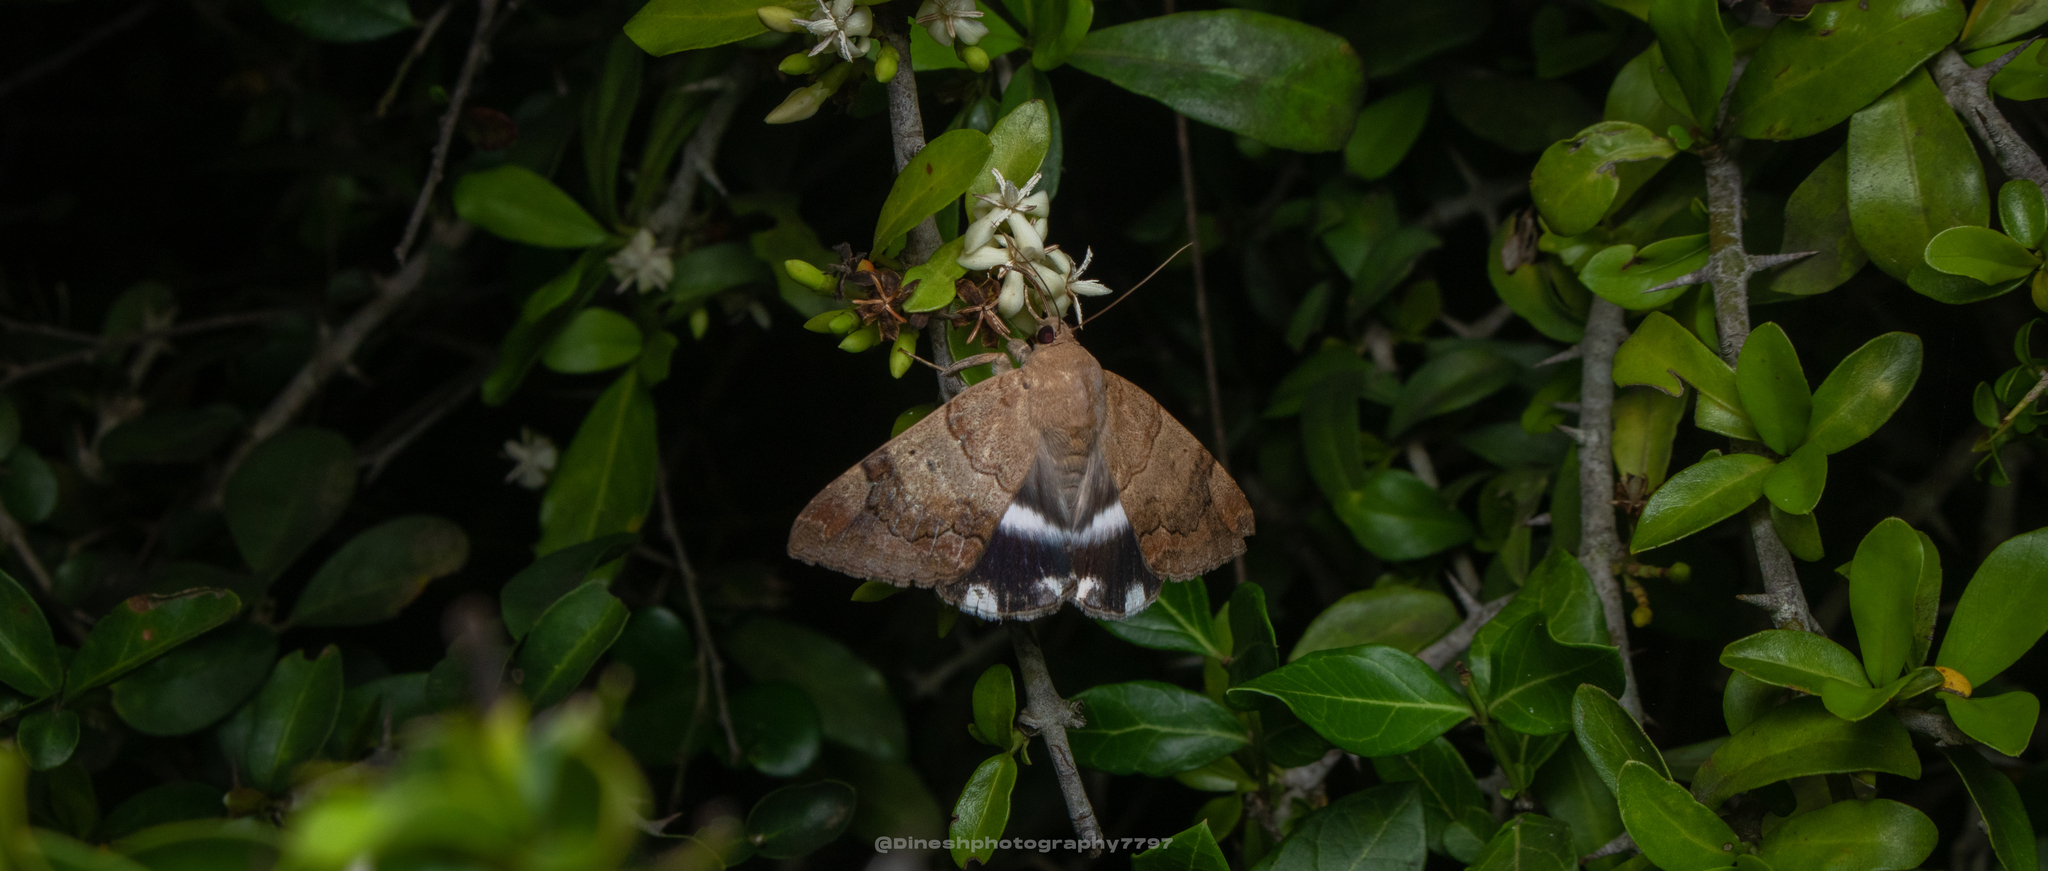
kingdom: Animalia
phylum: Arthropoda
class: Insecta
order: Lepidoptera
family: Erebidae
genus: Achaea
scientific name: Achaea janata
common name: Croton caterpillar
